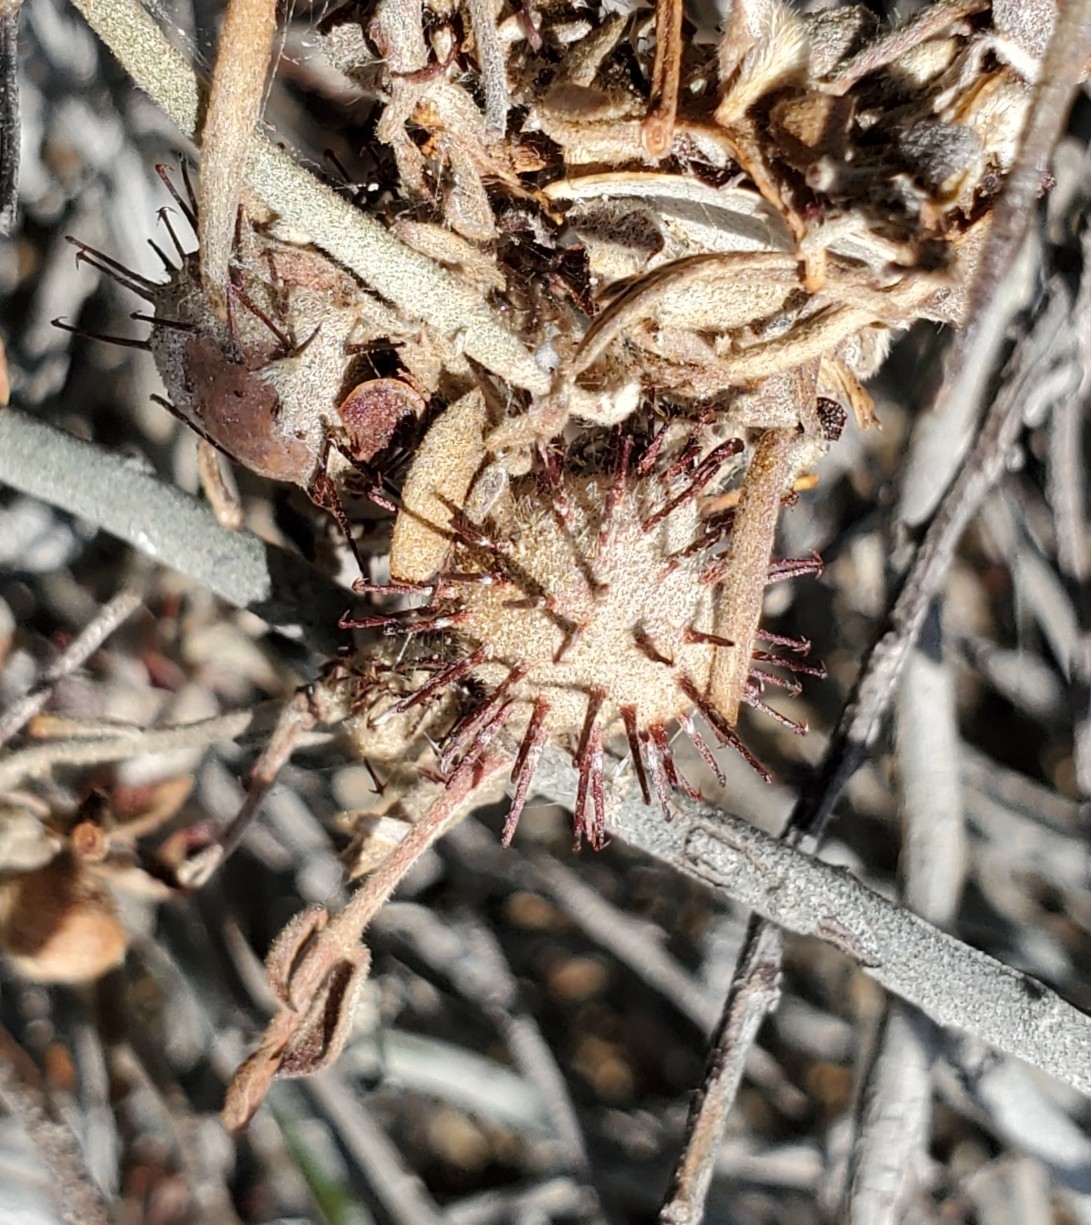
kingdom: Plantae
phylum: Tracheophyta
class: Magnoliopsida
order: Zygophyllales
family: Krameriaceae
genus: Krameria
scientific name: Krameria bicolor
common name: White ratany
